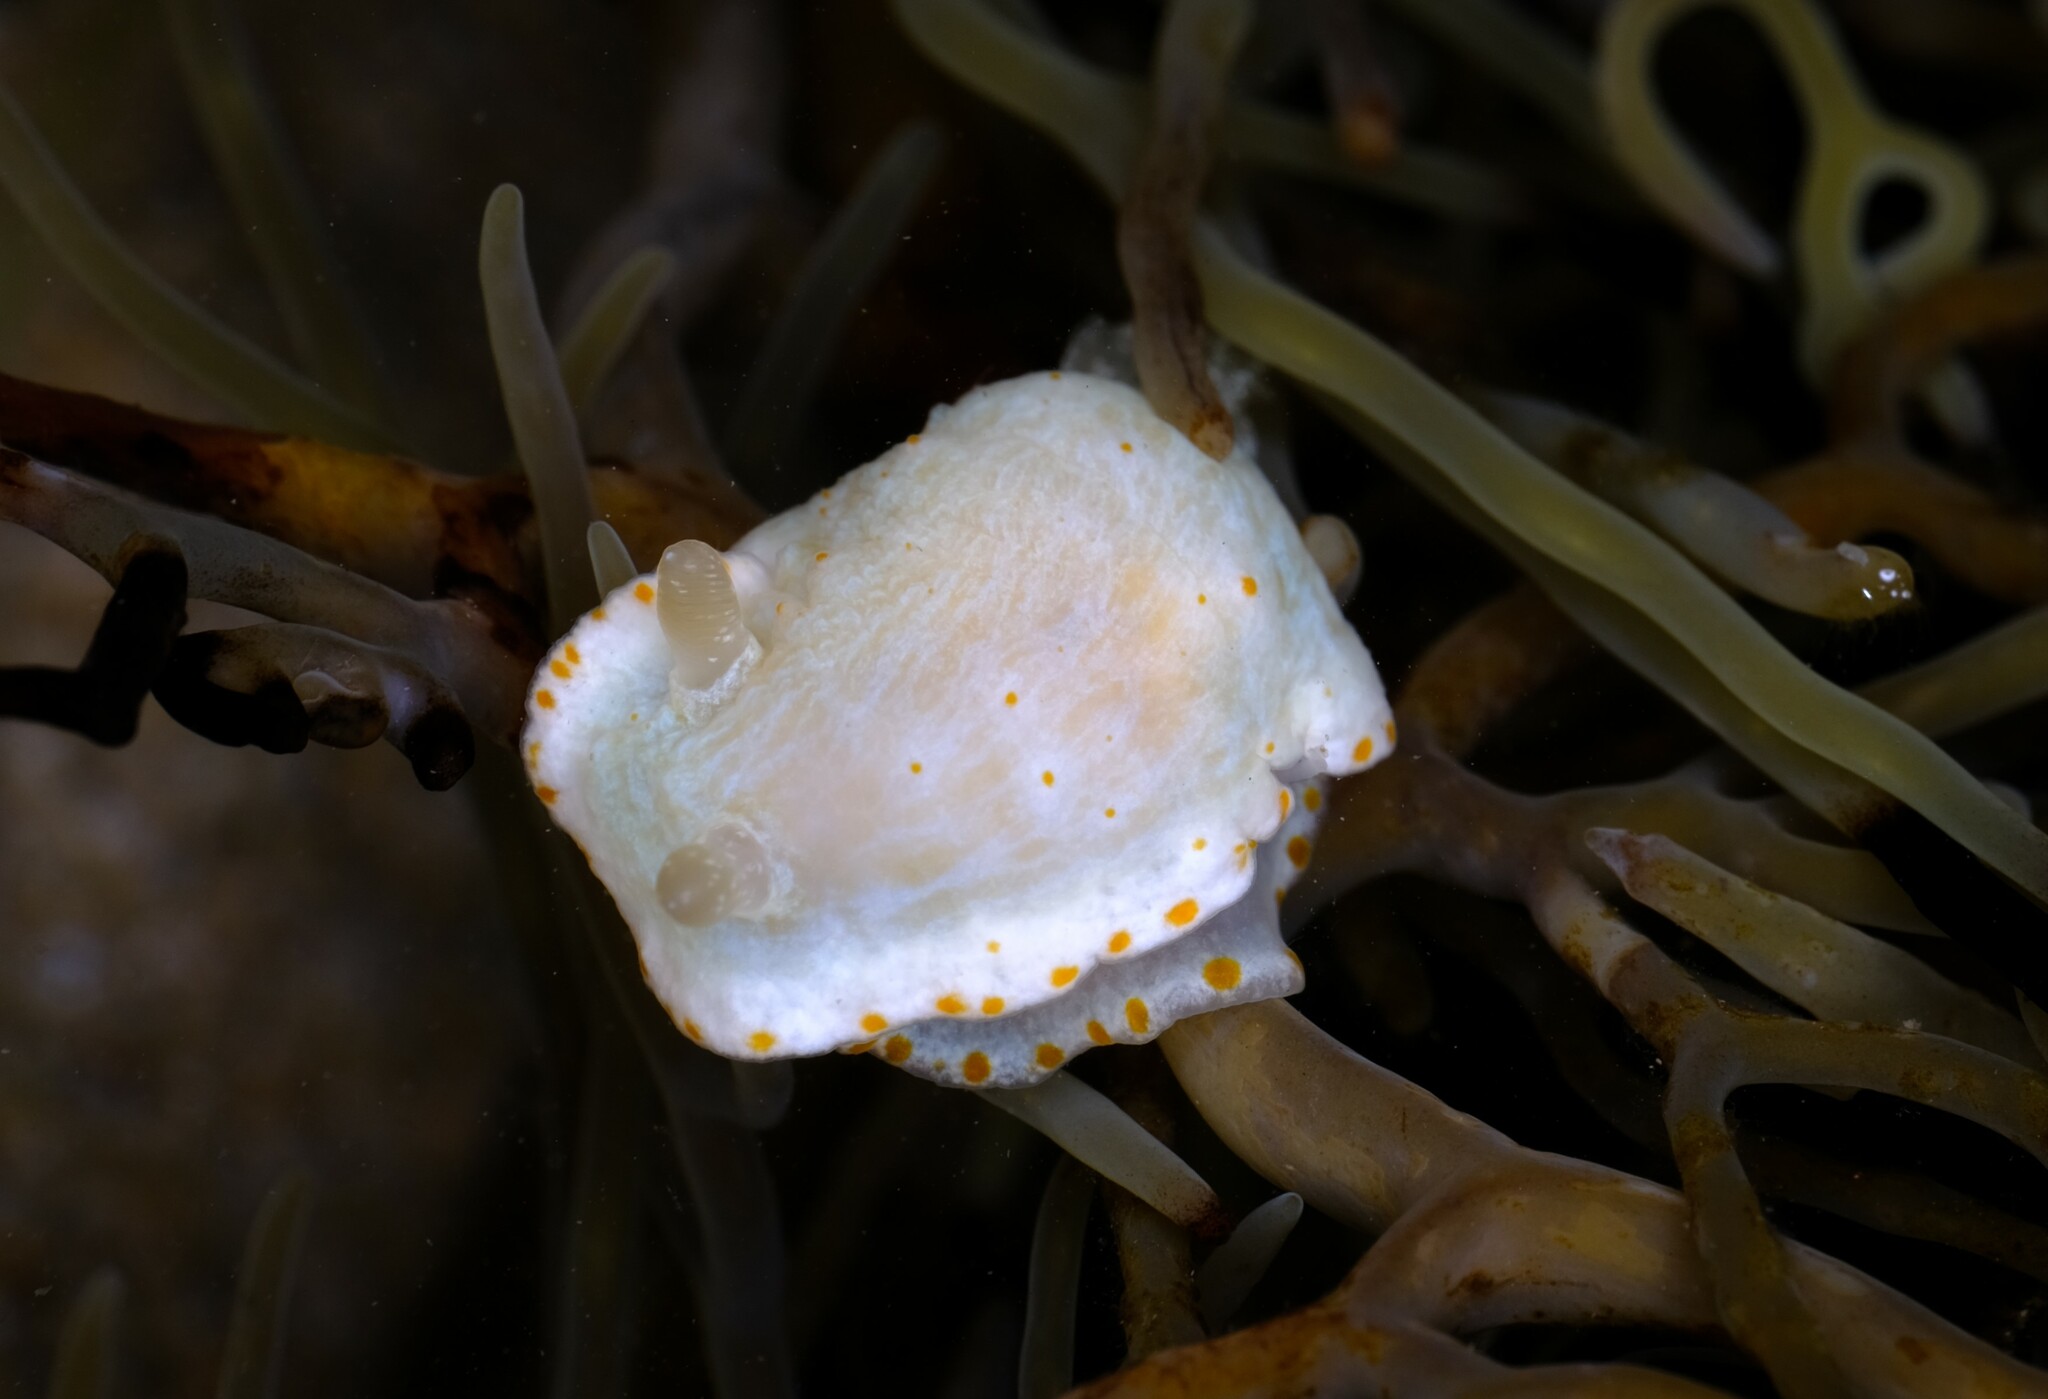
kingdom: Animalia
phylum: Mollusca
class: Gastropoda
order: Nudibranchia
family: Chromodorididae
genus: Goniobranchus
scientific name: Goniobranchus epicurius
